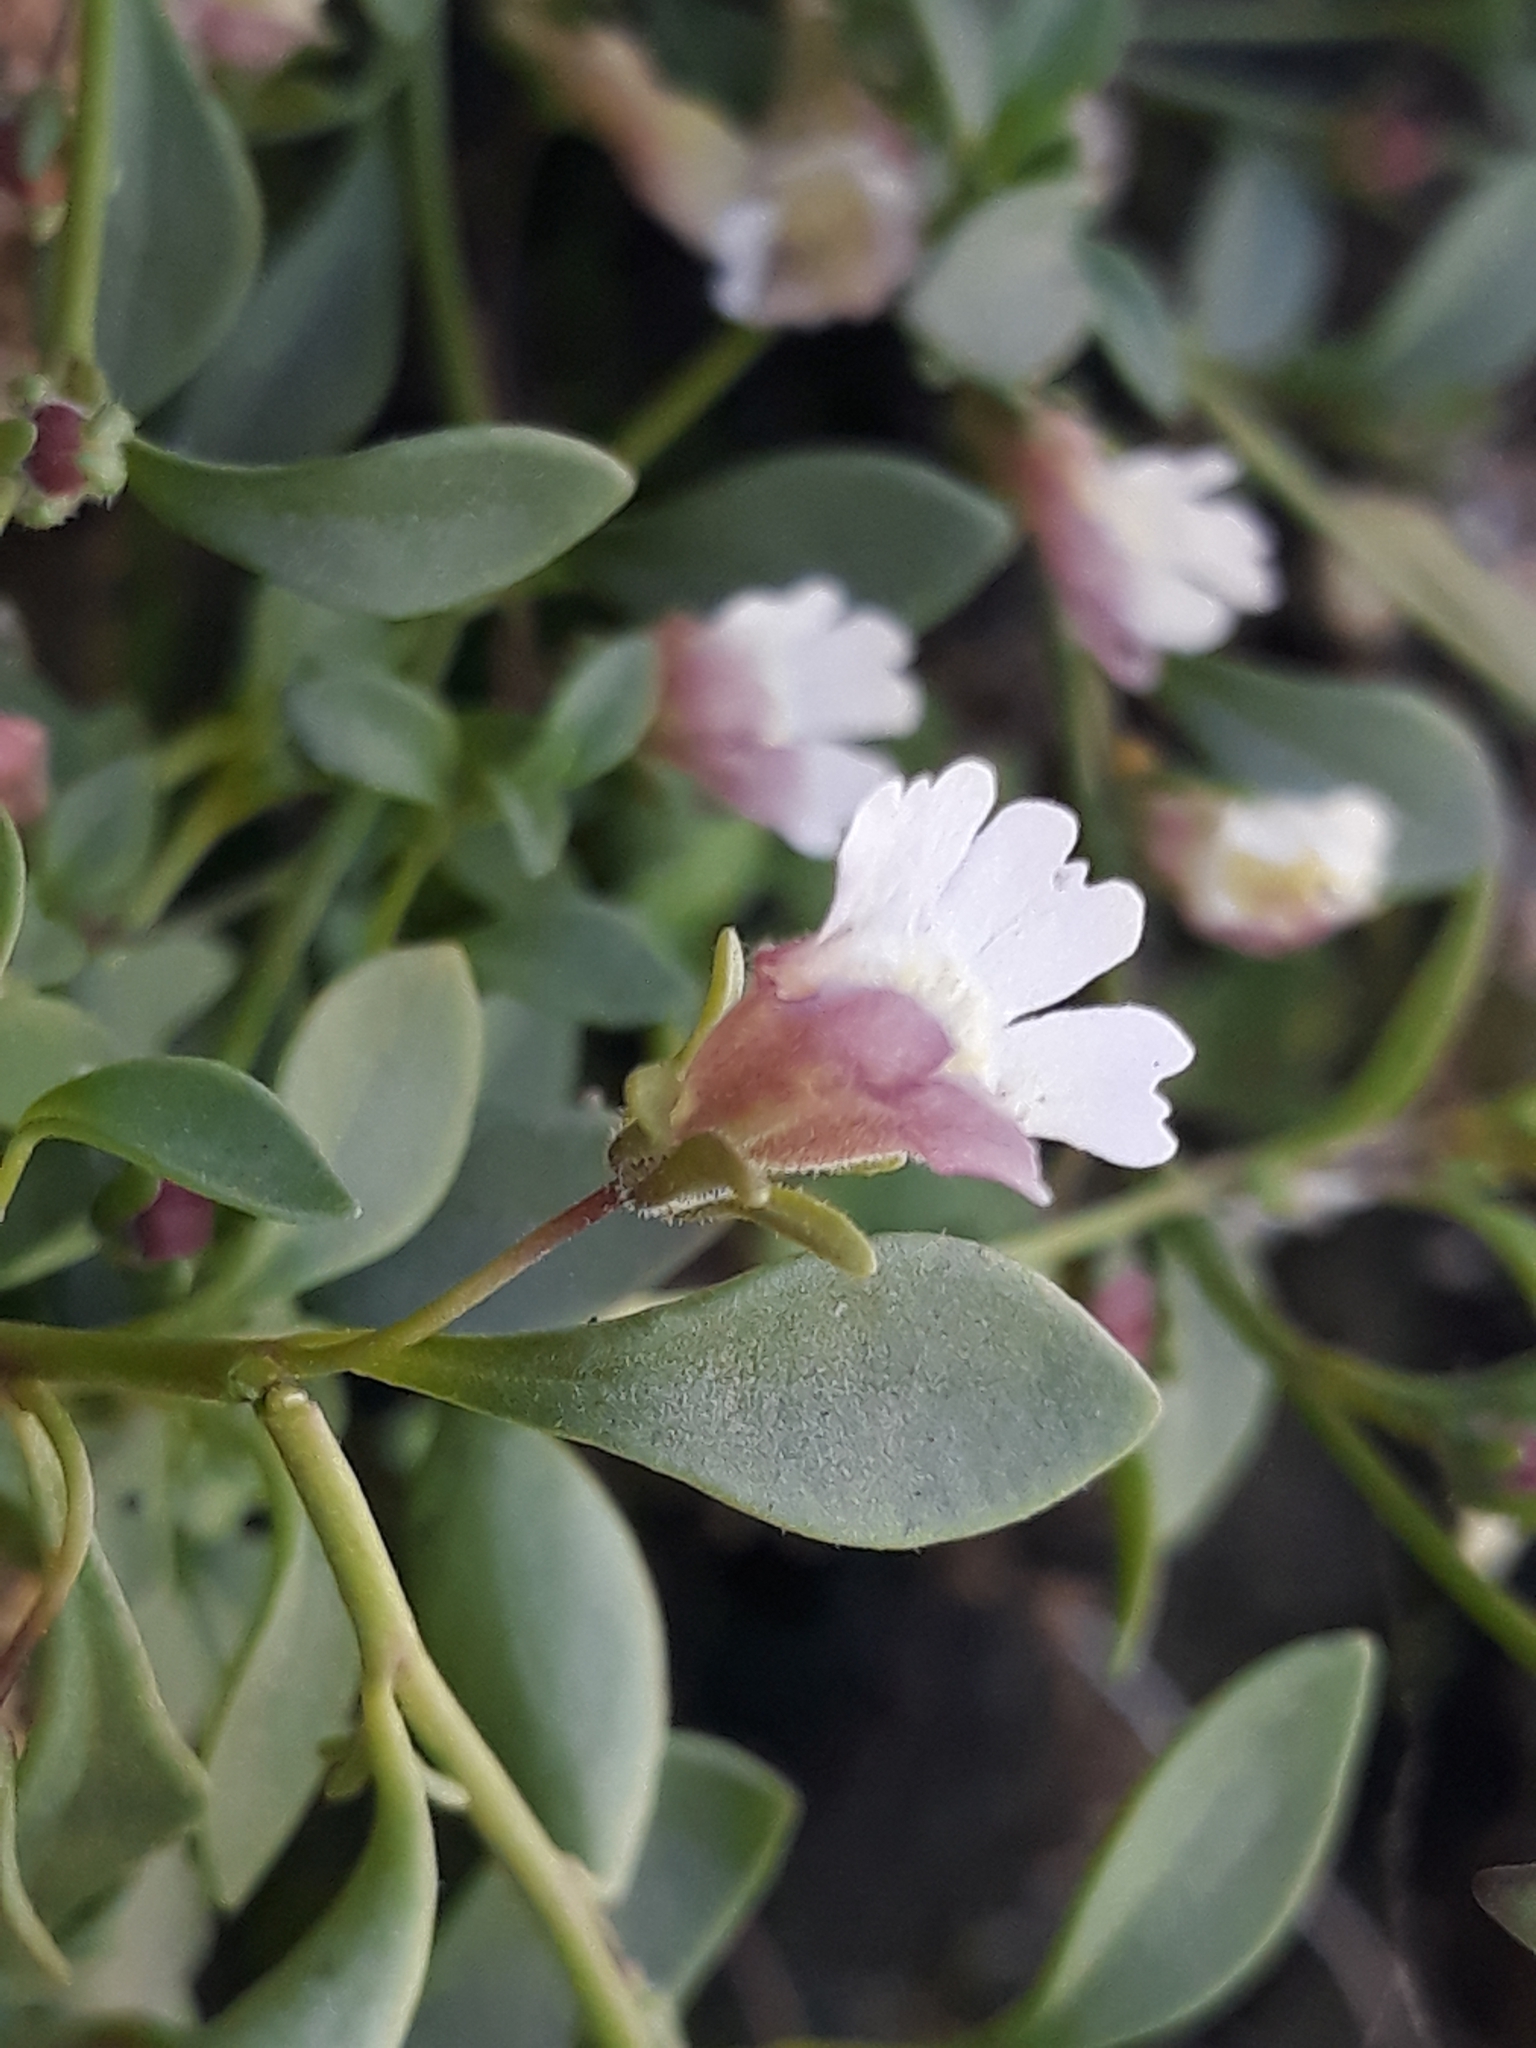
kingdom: Plantae
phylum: Tracheophyta
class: Magnoliopsida
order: Lamiales
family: Plantaginaceae
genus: Chaenorhinum
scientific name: Chaenorhinum flexuosum
